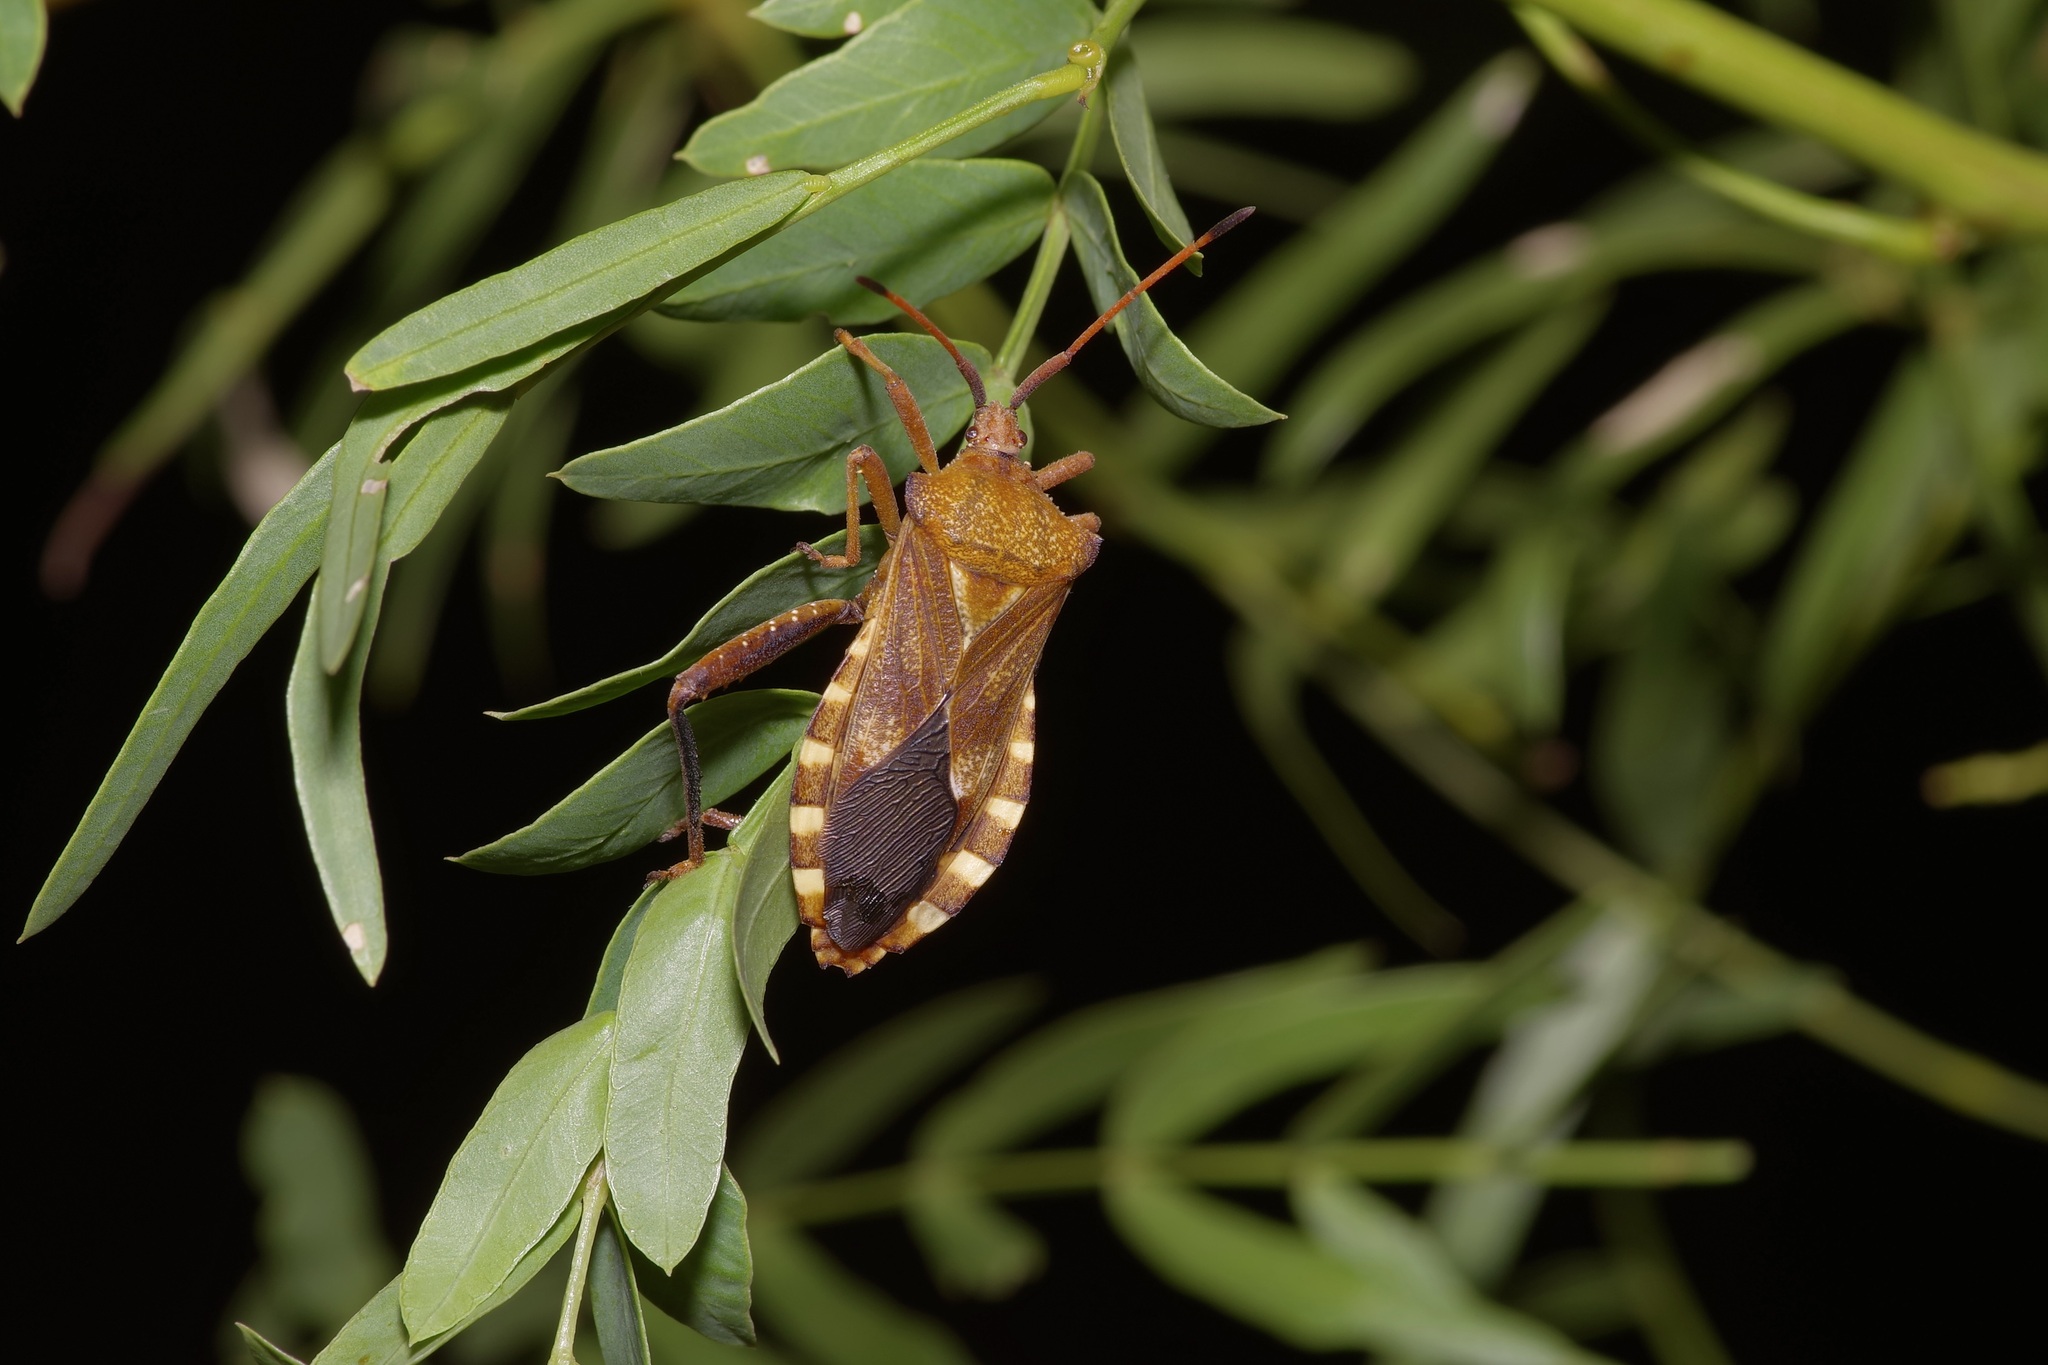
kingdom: Animalia
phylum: Arthropoda
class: Insecta
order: Hemiptera
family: Coreidae
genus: Mozena
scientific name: Mozena lunata
